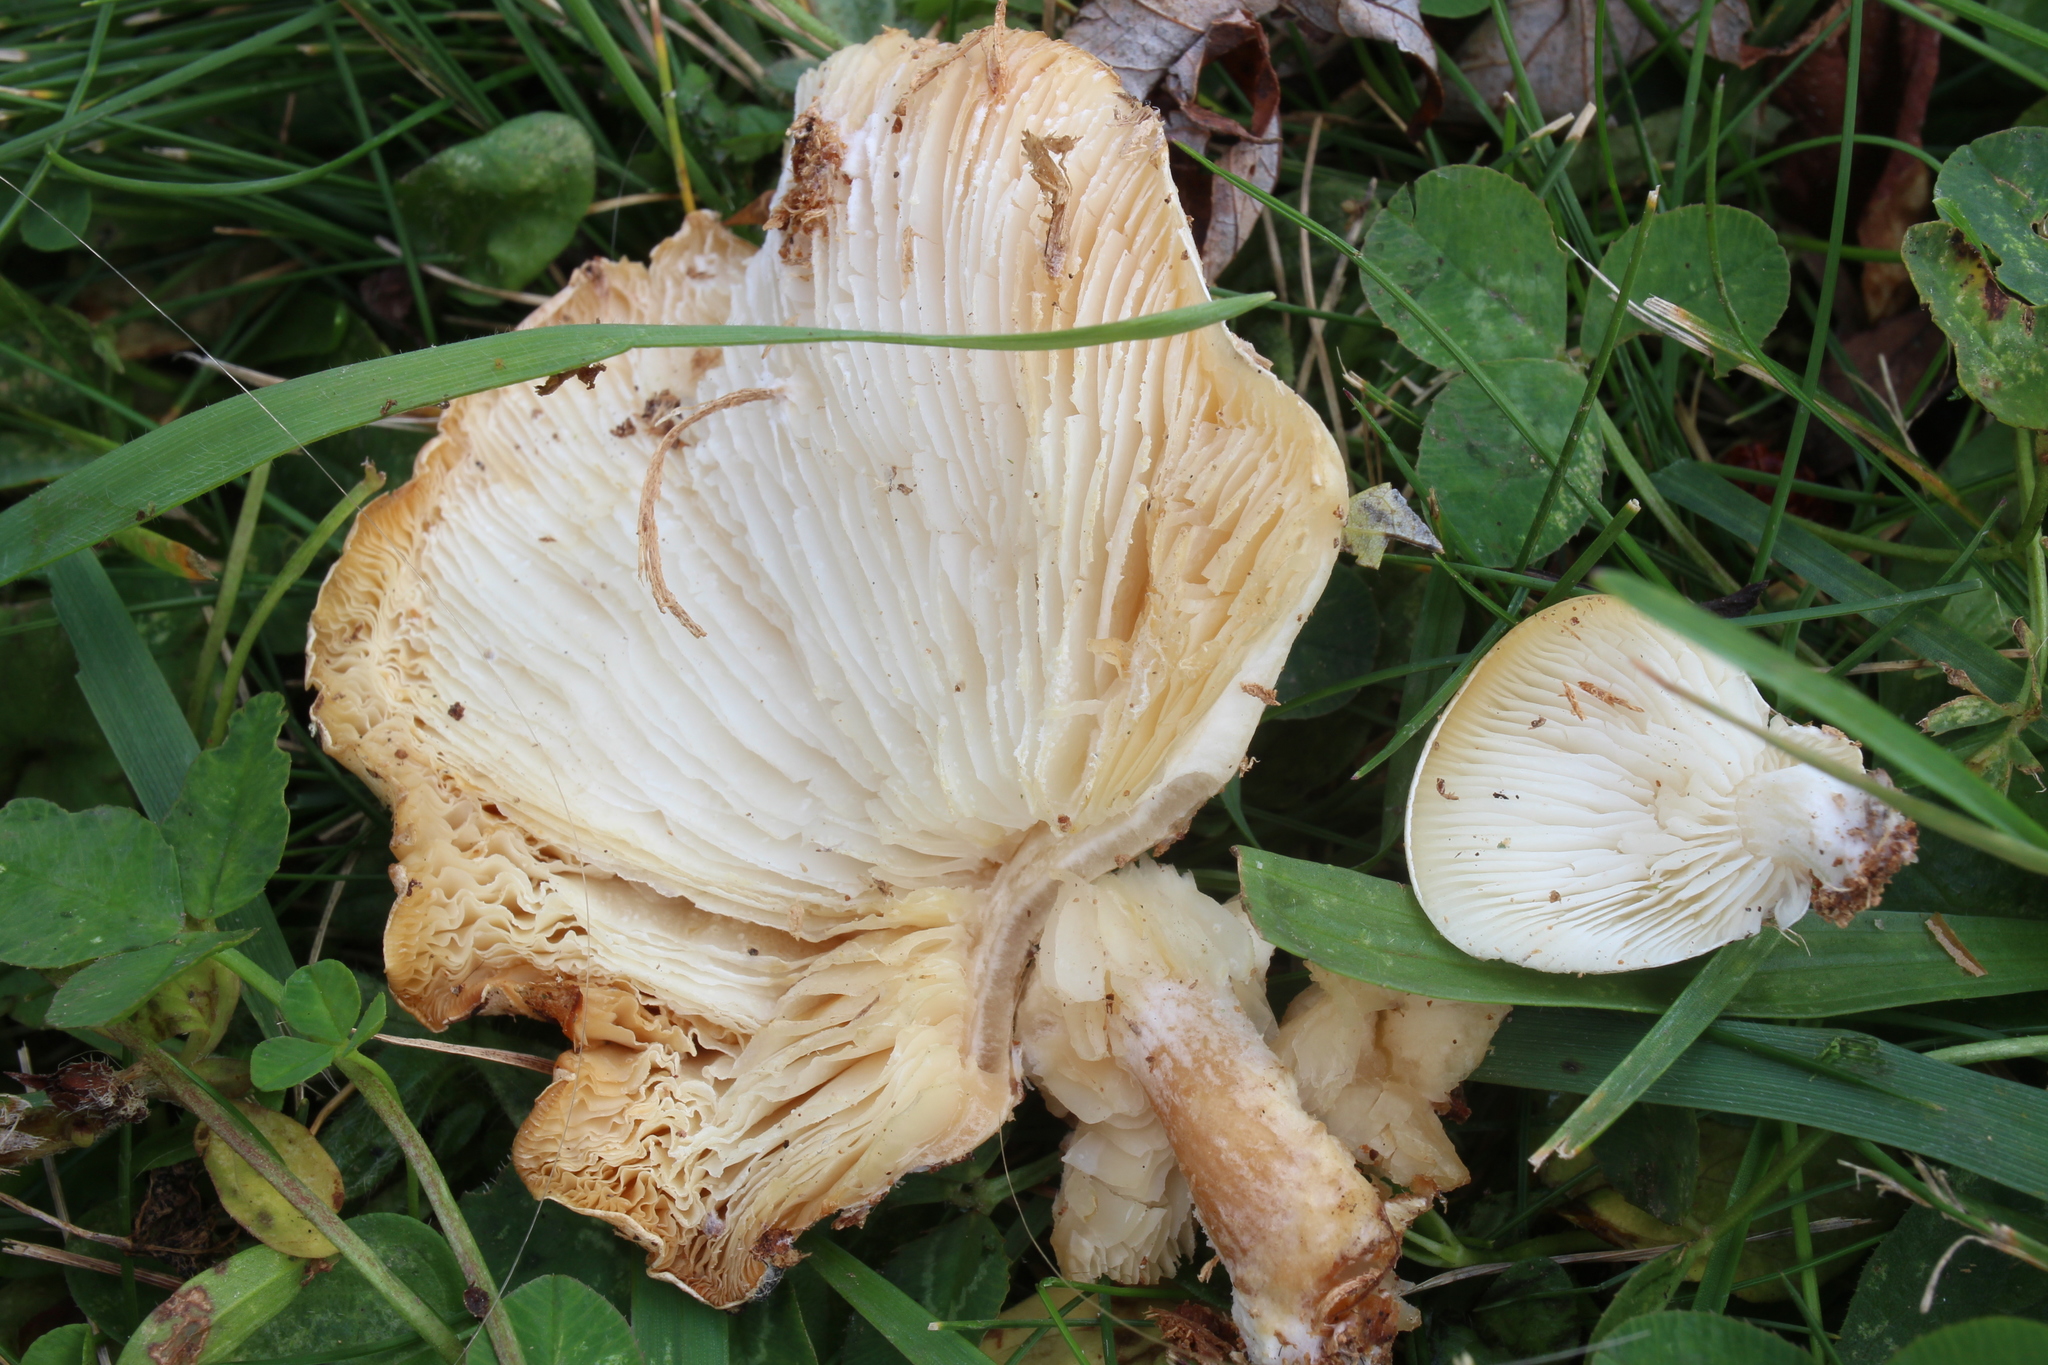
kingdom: Fungi
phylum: Basidiomycota
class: Agaricomycetes
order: Agaricales
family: Lyophyllaceae
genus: Ossicaulis
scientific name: Ossicaulis lignatilis
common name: Mealy oyster
